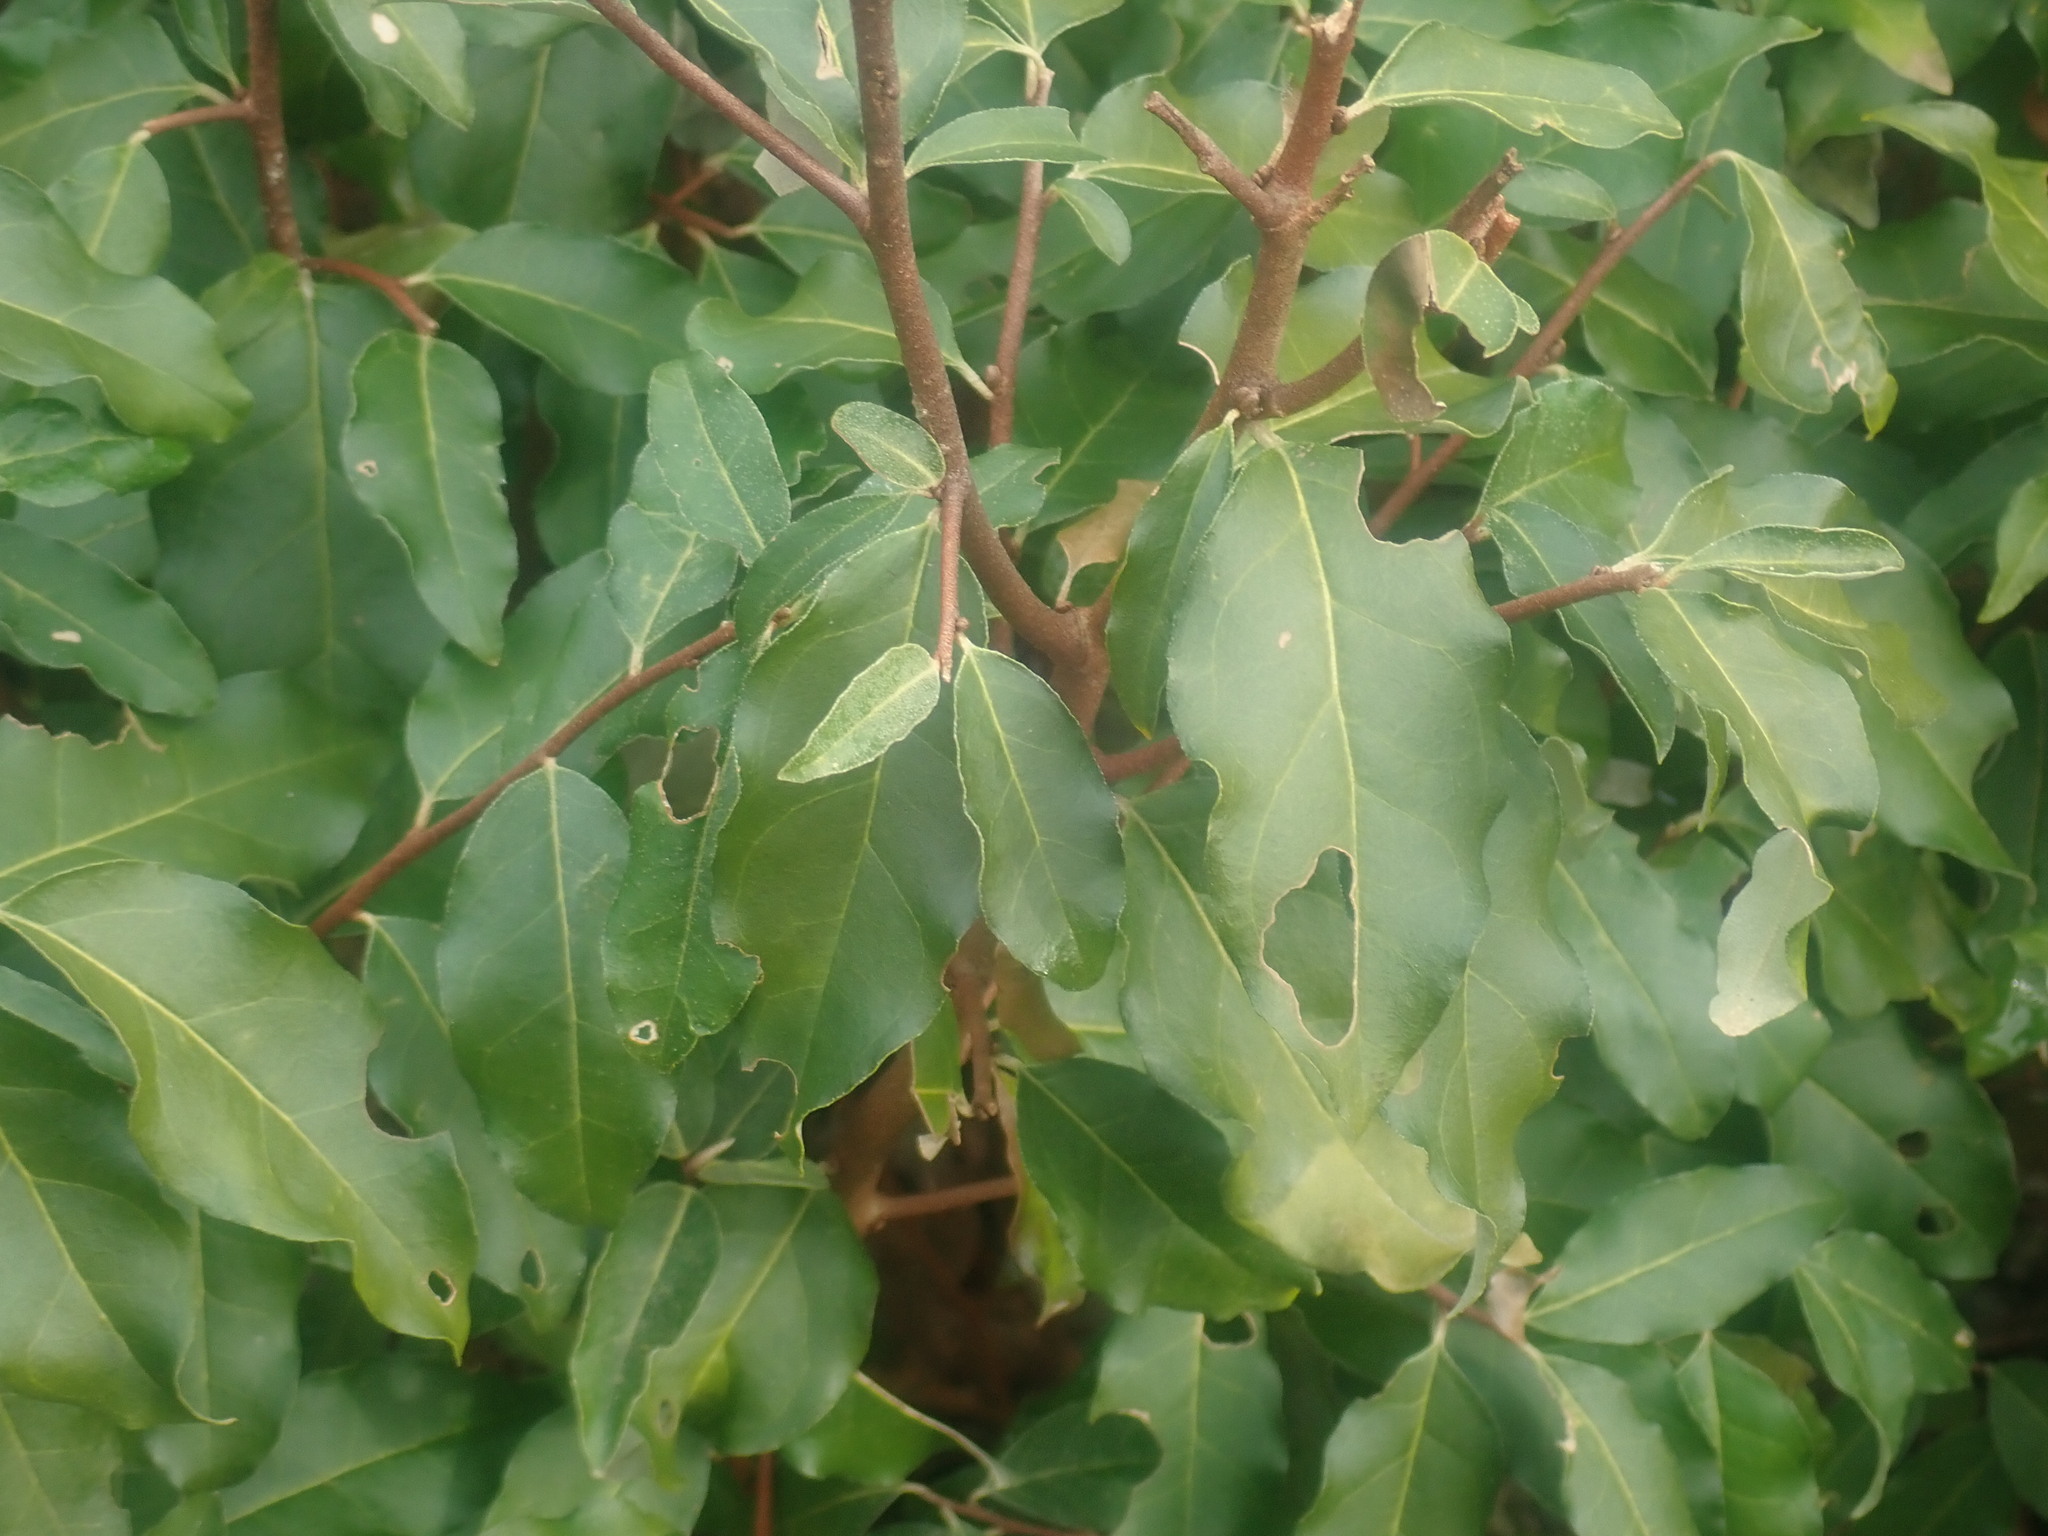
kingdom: Plantae
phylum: Tracheophyta
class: Magnoliopsida
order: Rosales
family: Elaeagnaceae
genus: Elaeagnus
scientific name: Elaeagnus umbellata
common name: Autumn olive
